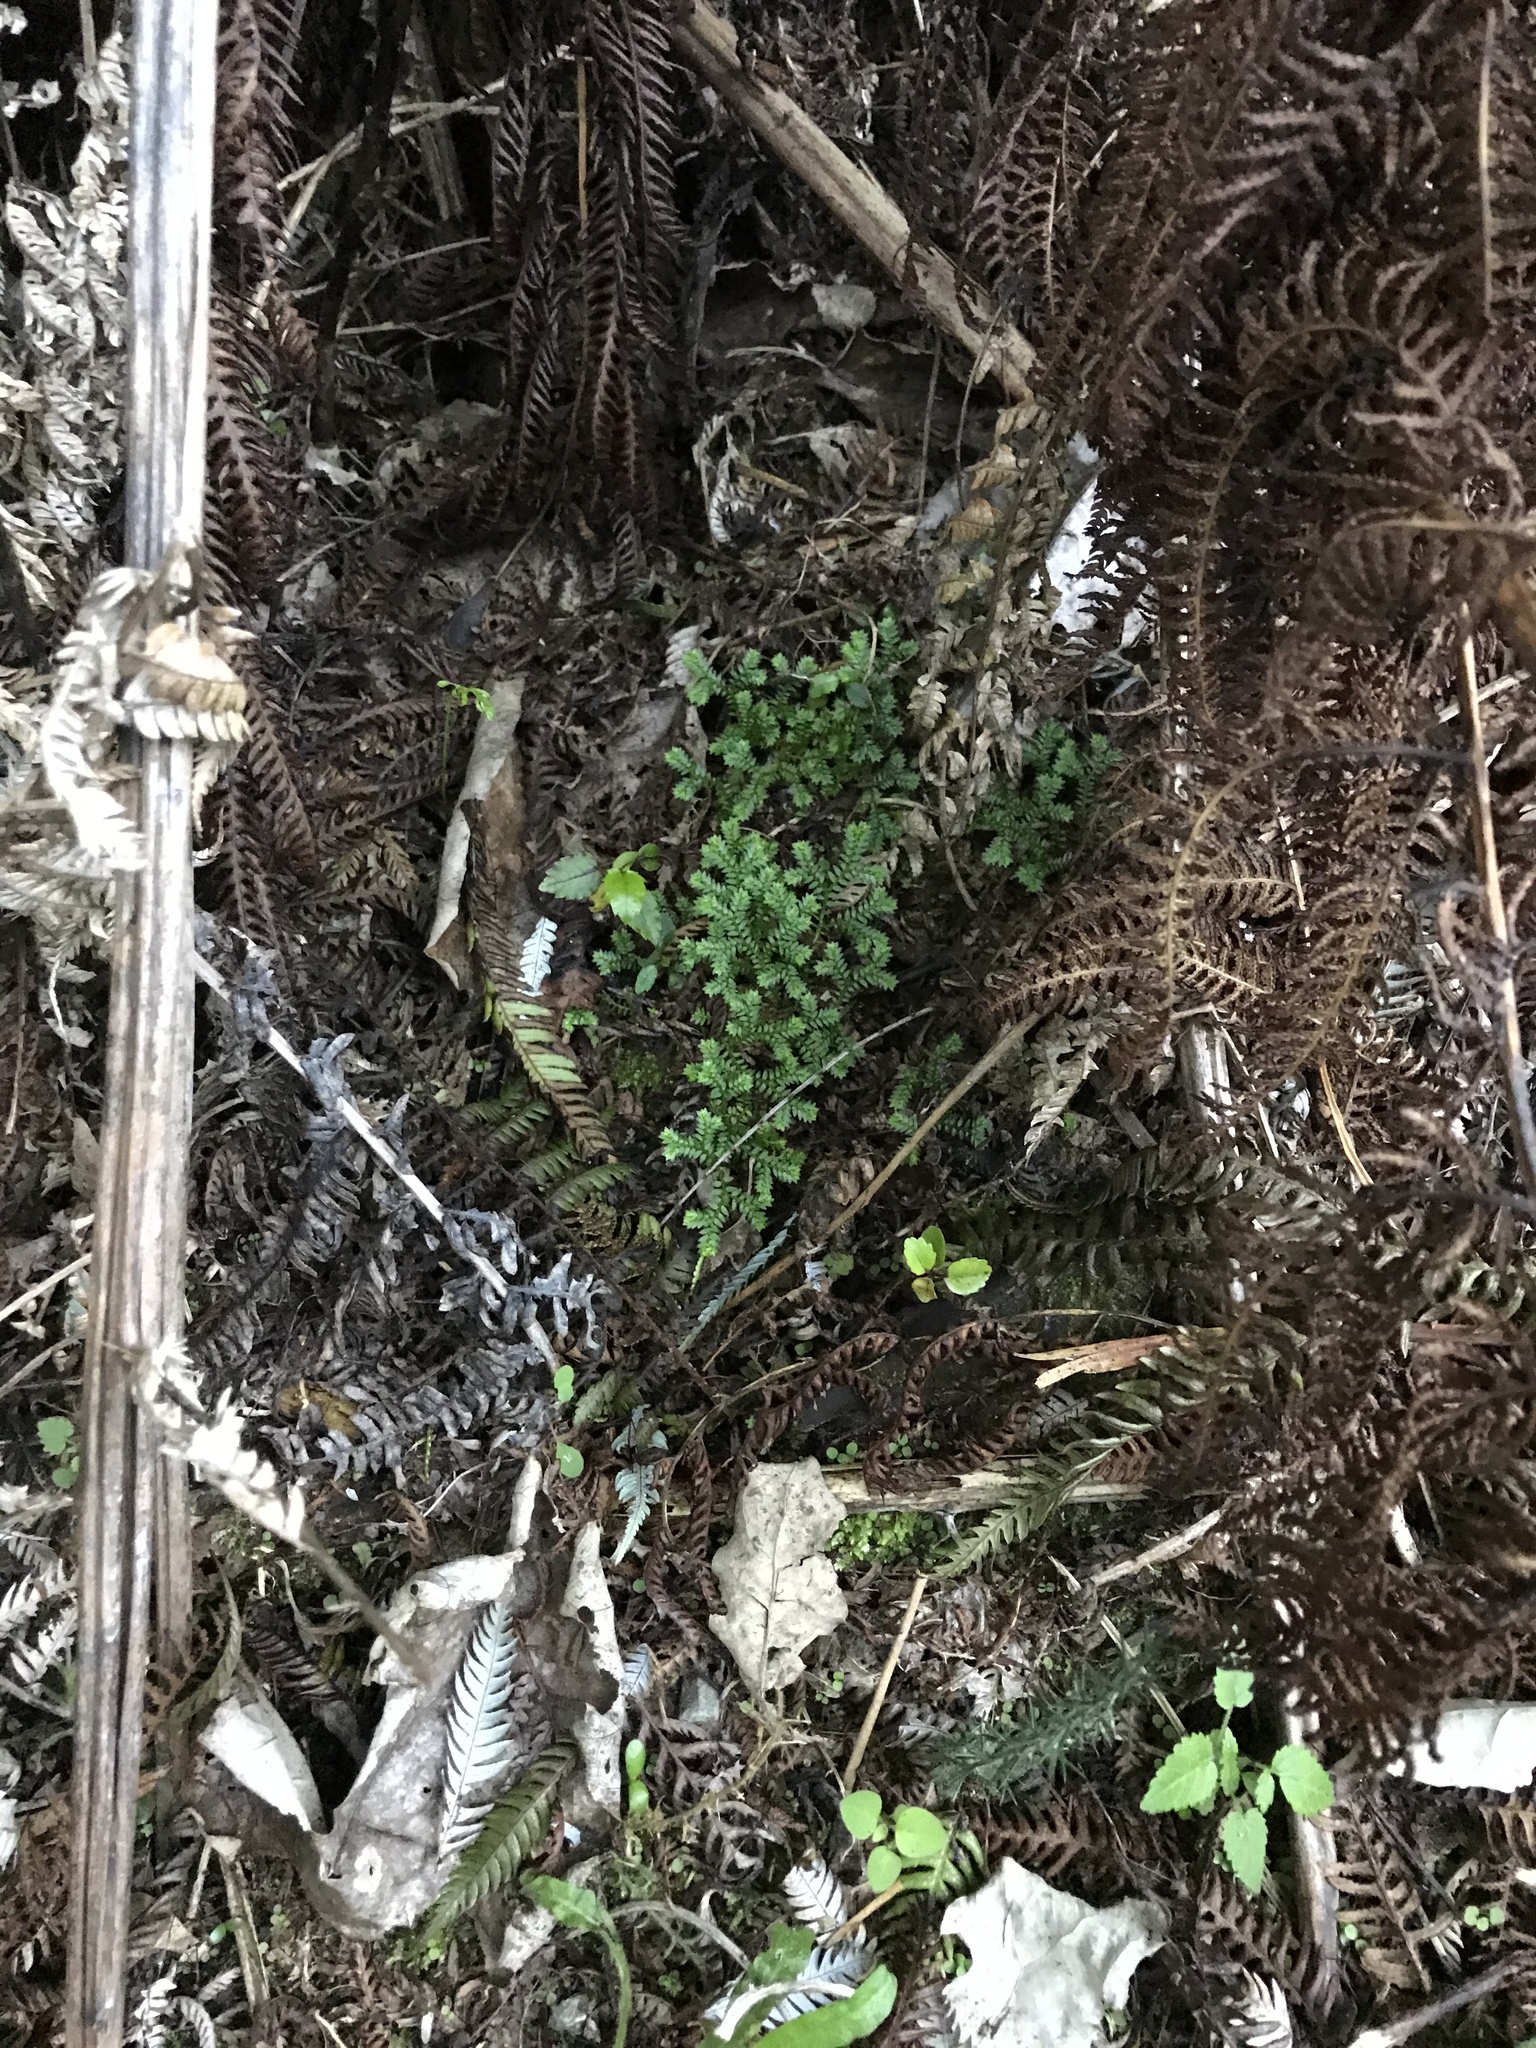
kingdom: Plantae
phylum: Tracheophyta
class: Lycopodiopsida
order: Selaginellales
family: Selaginellaceae
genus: Selaginella
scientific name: Selaginella kraussiana
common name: Krauss' spikemoss
